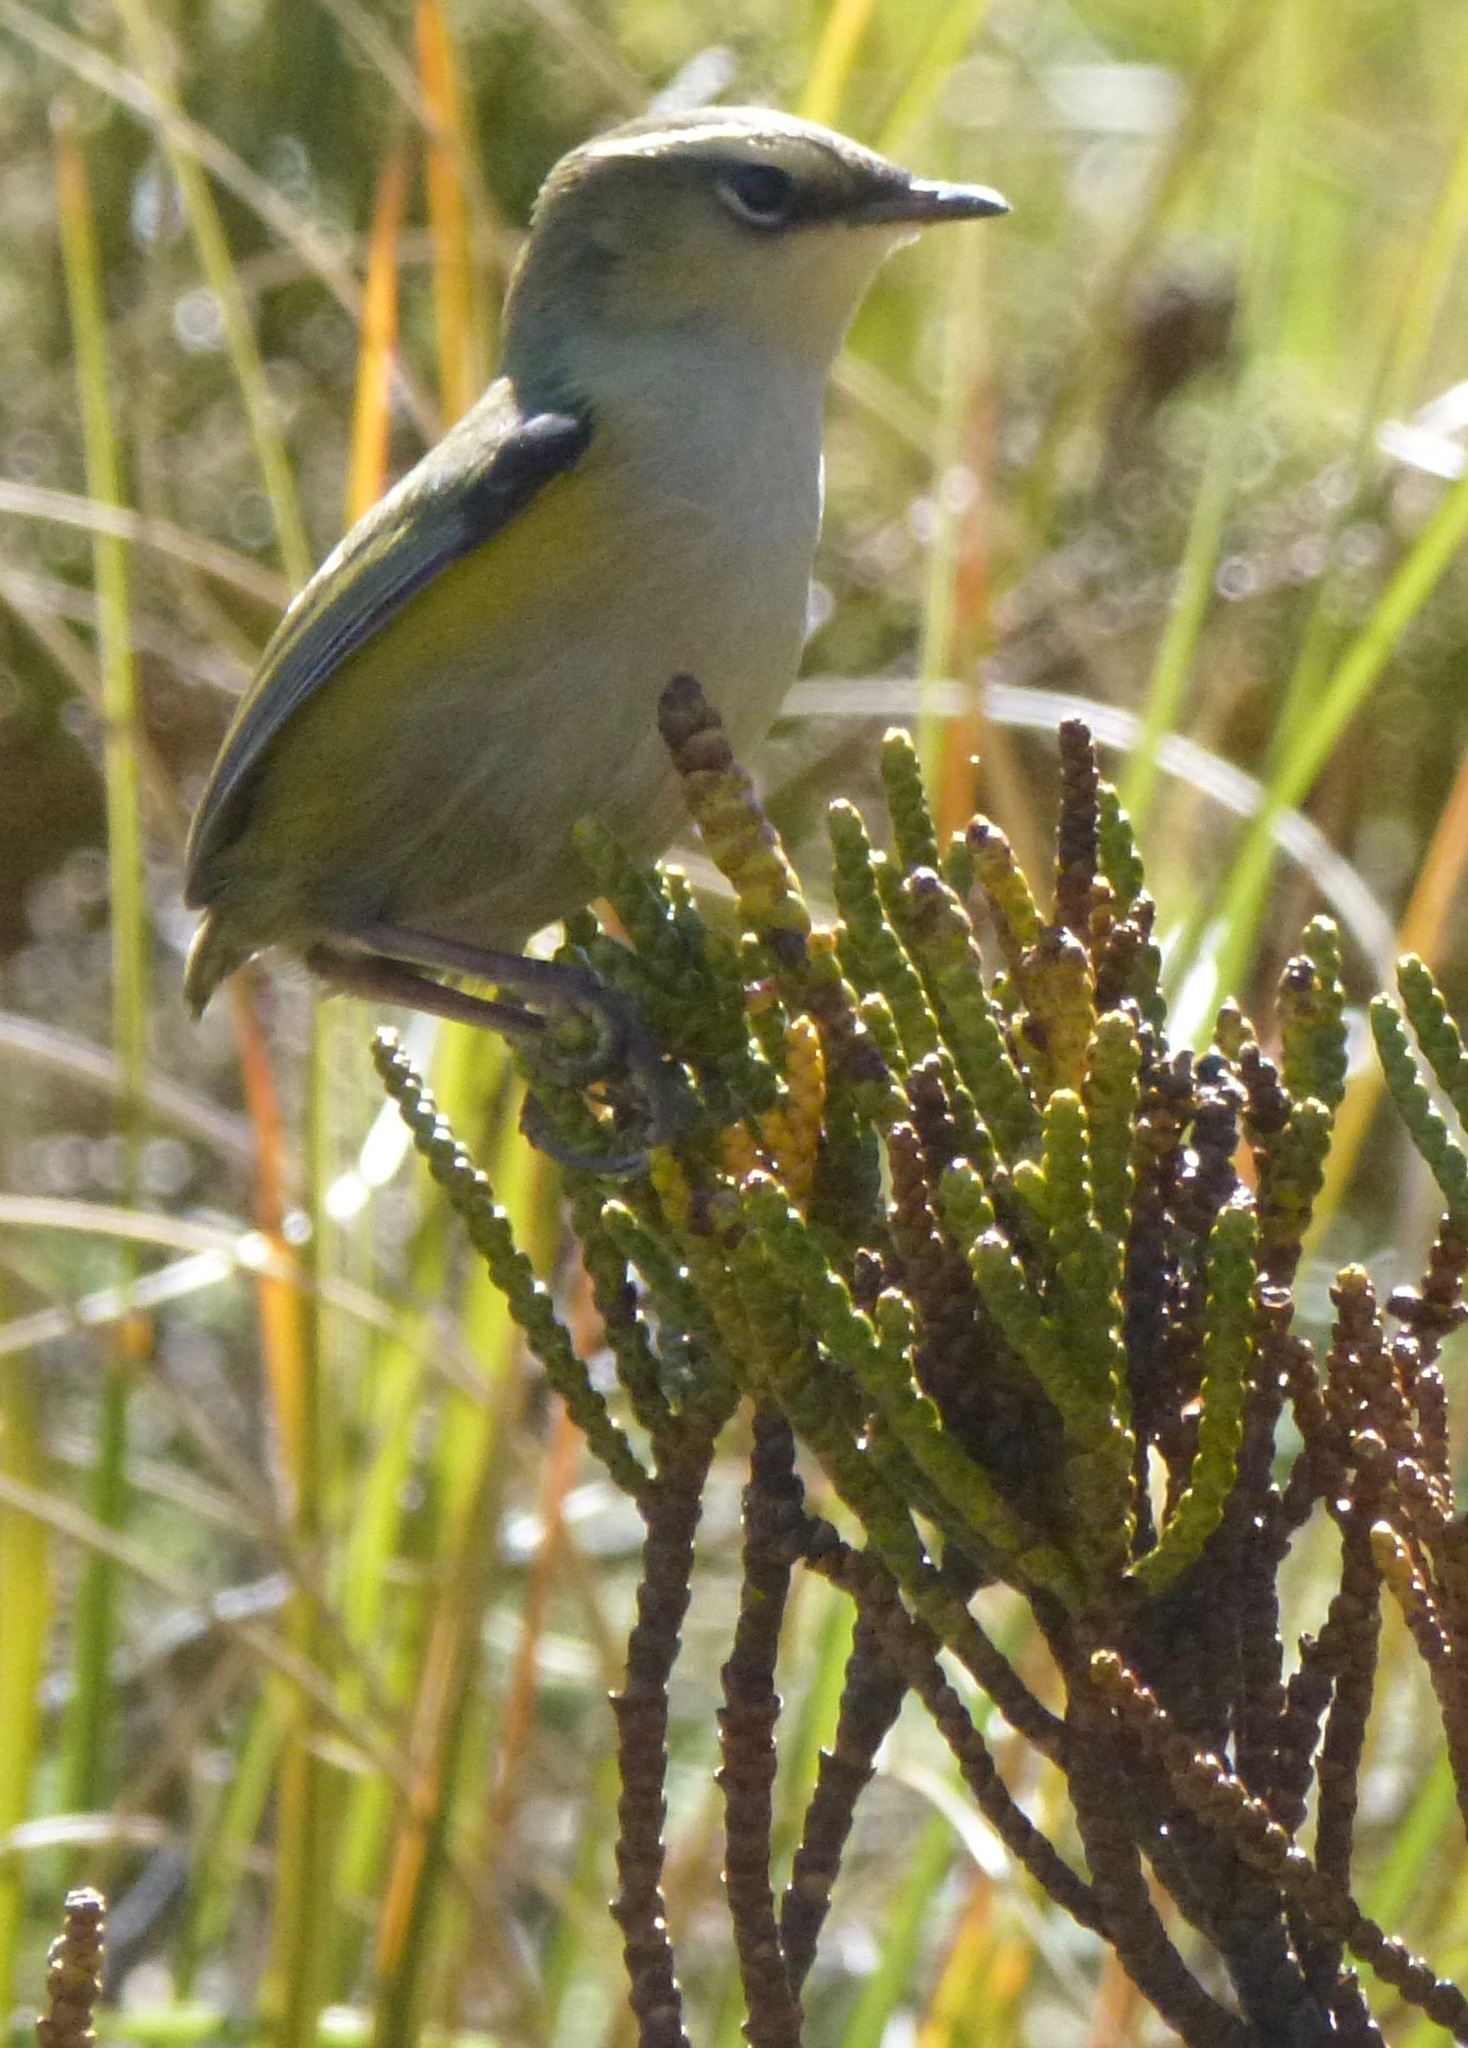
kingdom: Animalia
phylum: Chordata
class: Aves
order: Passeriformes
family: Acanthisittidae
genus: Xenicus
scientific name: Xenicus gilviventris
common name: New zealand rockwren
